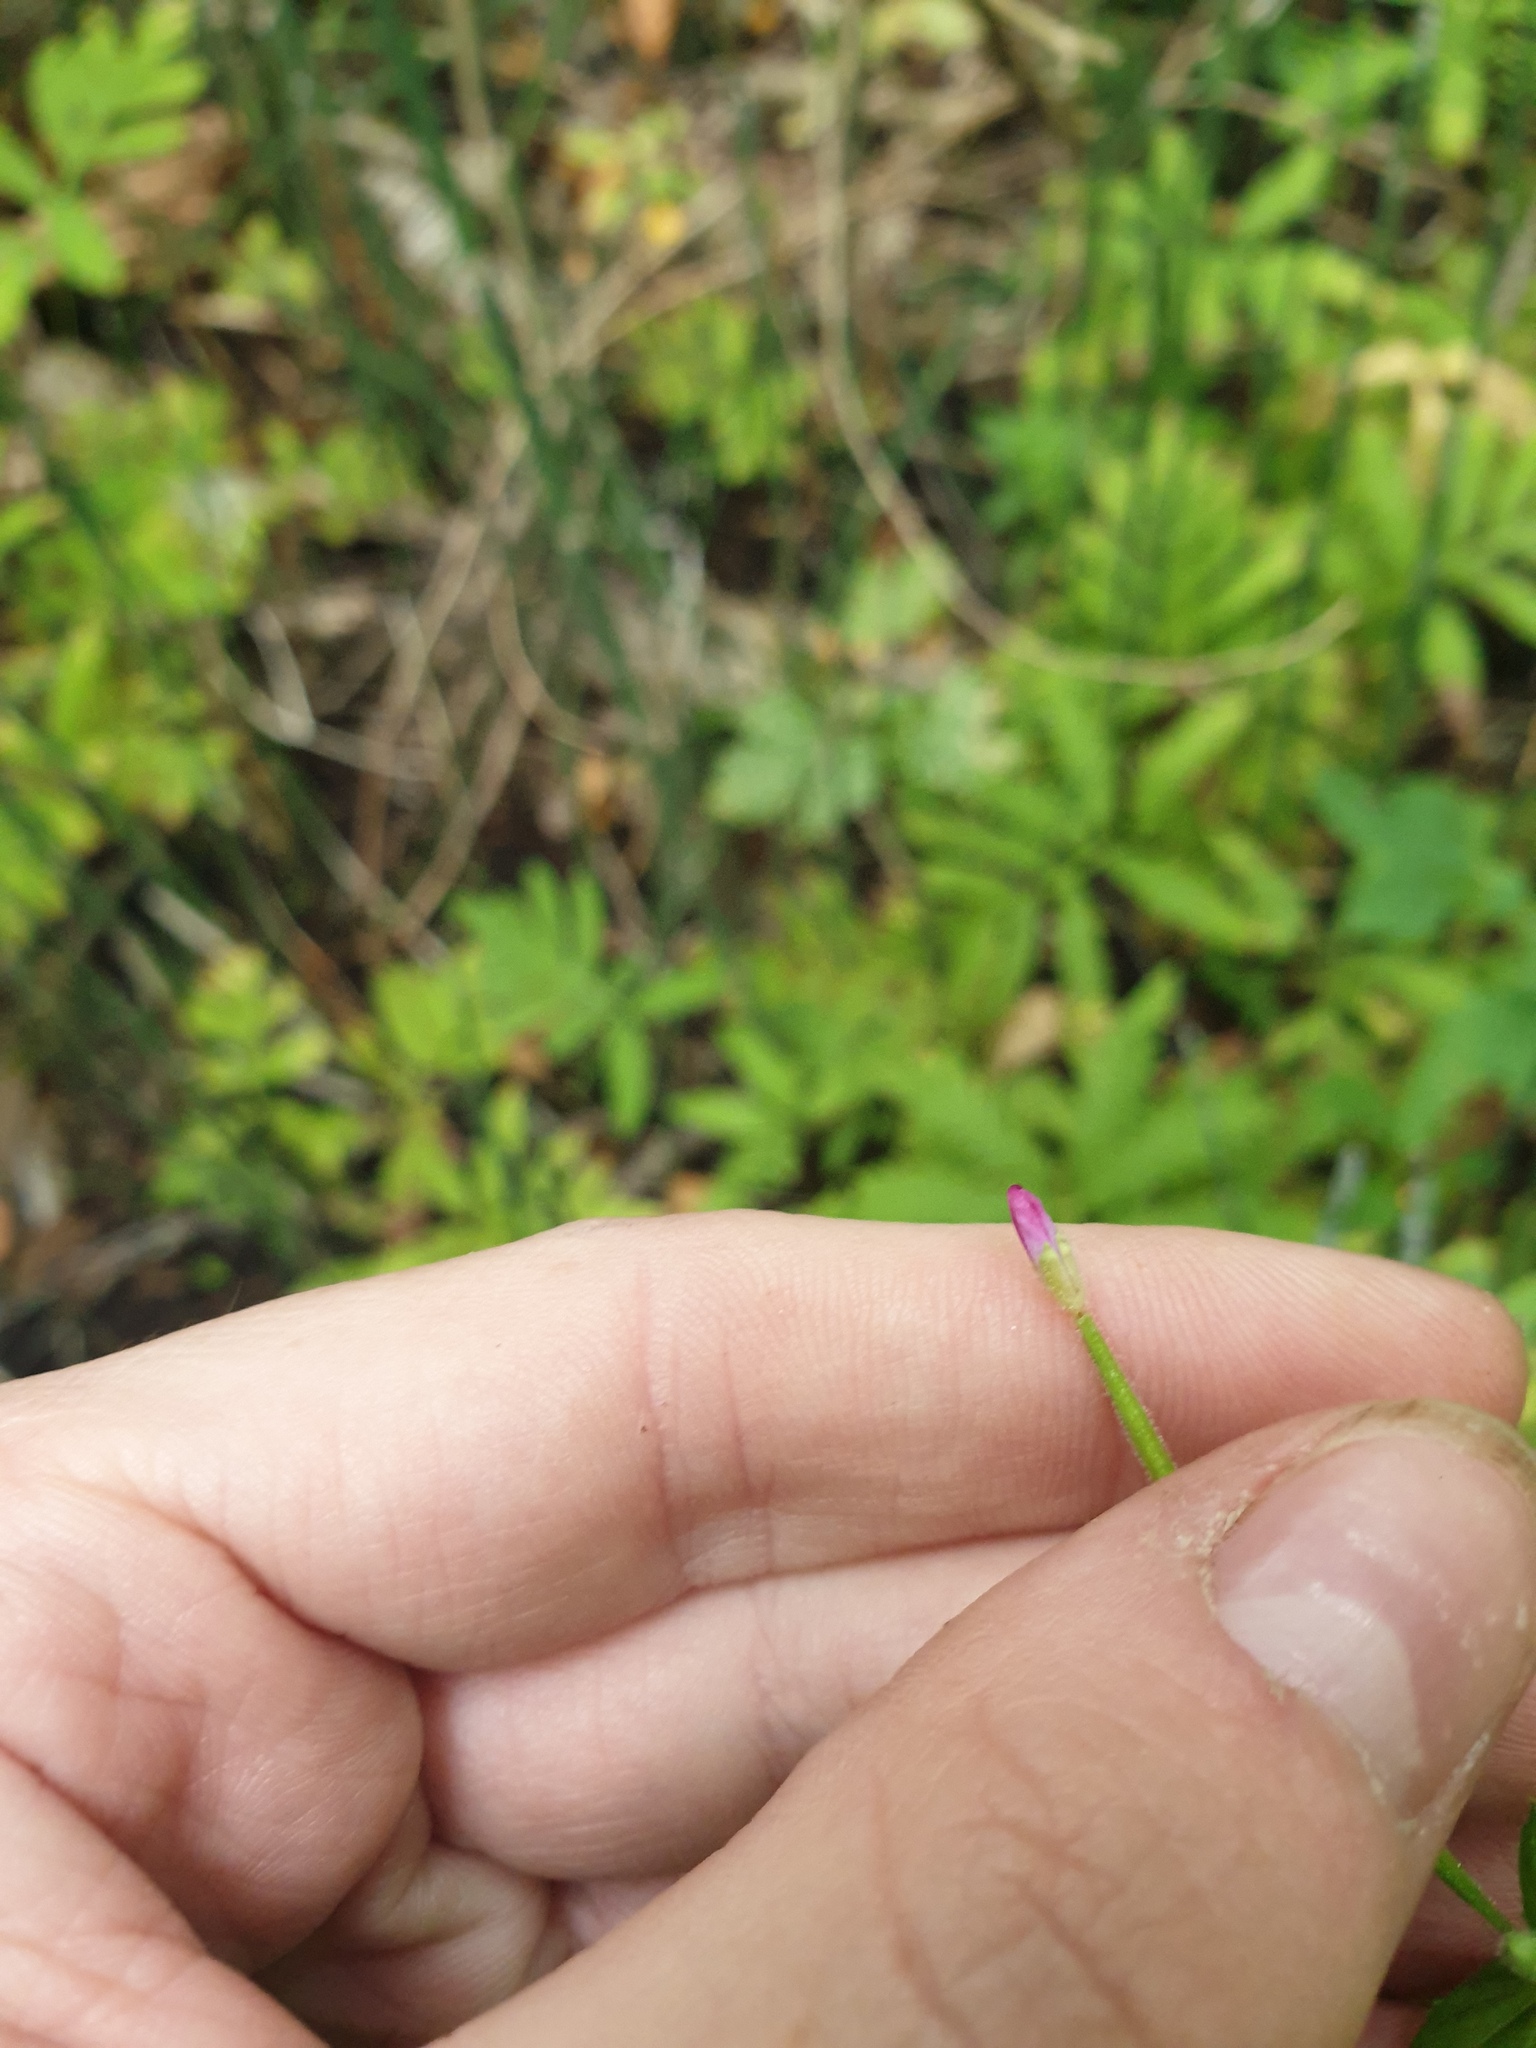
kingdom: Plantae
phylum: Tracheophyta
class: Magnoliopsida
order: Myrtales
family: Onagraceae
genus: Epilobium
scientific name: Epilobium parviflorum
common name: Hoary willowherb
